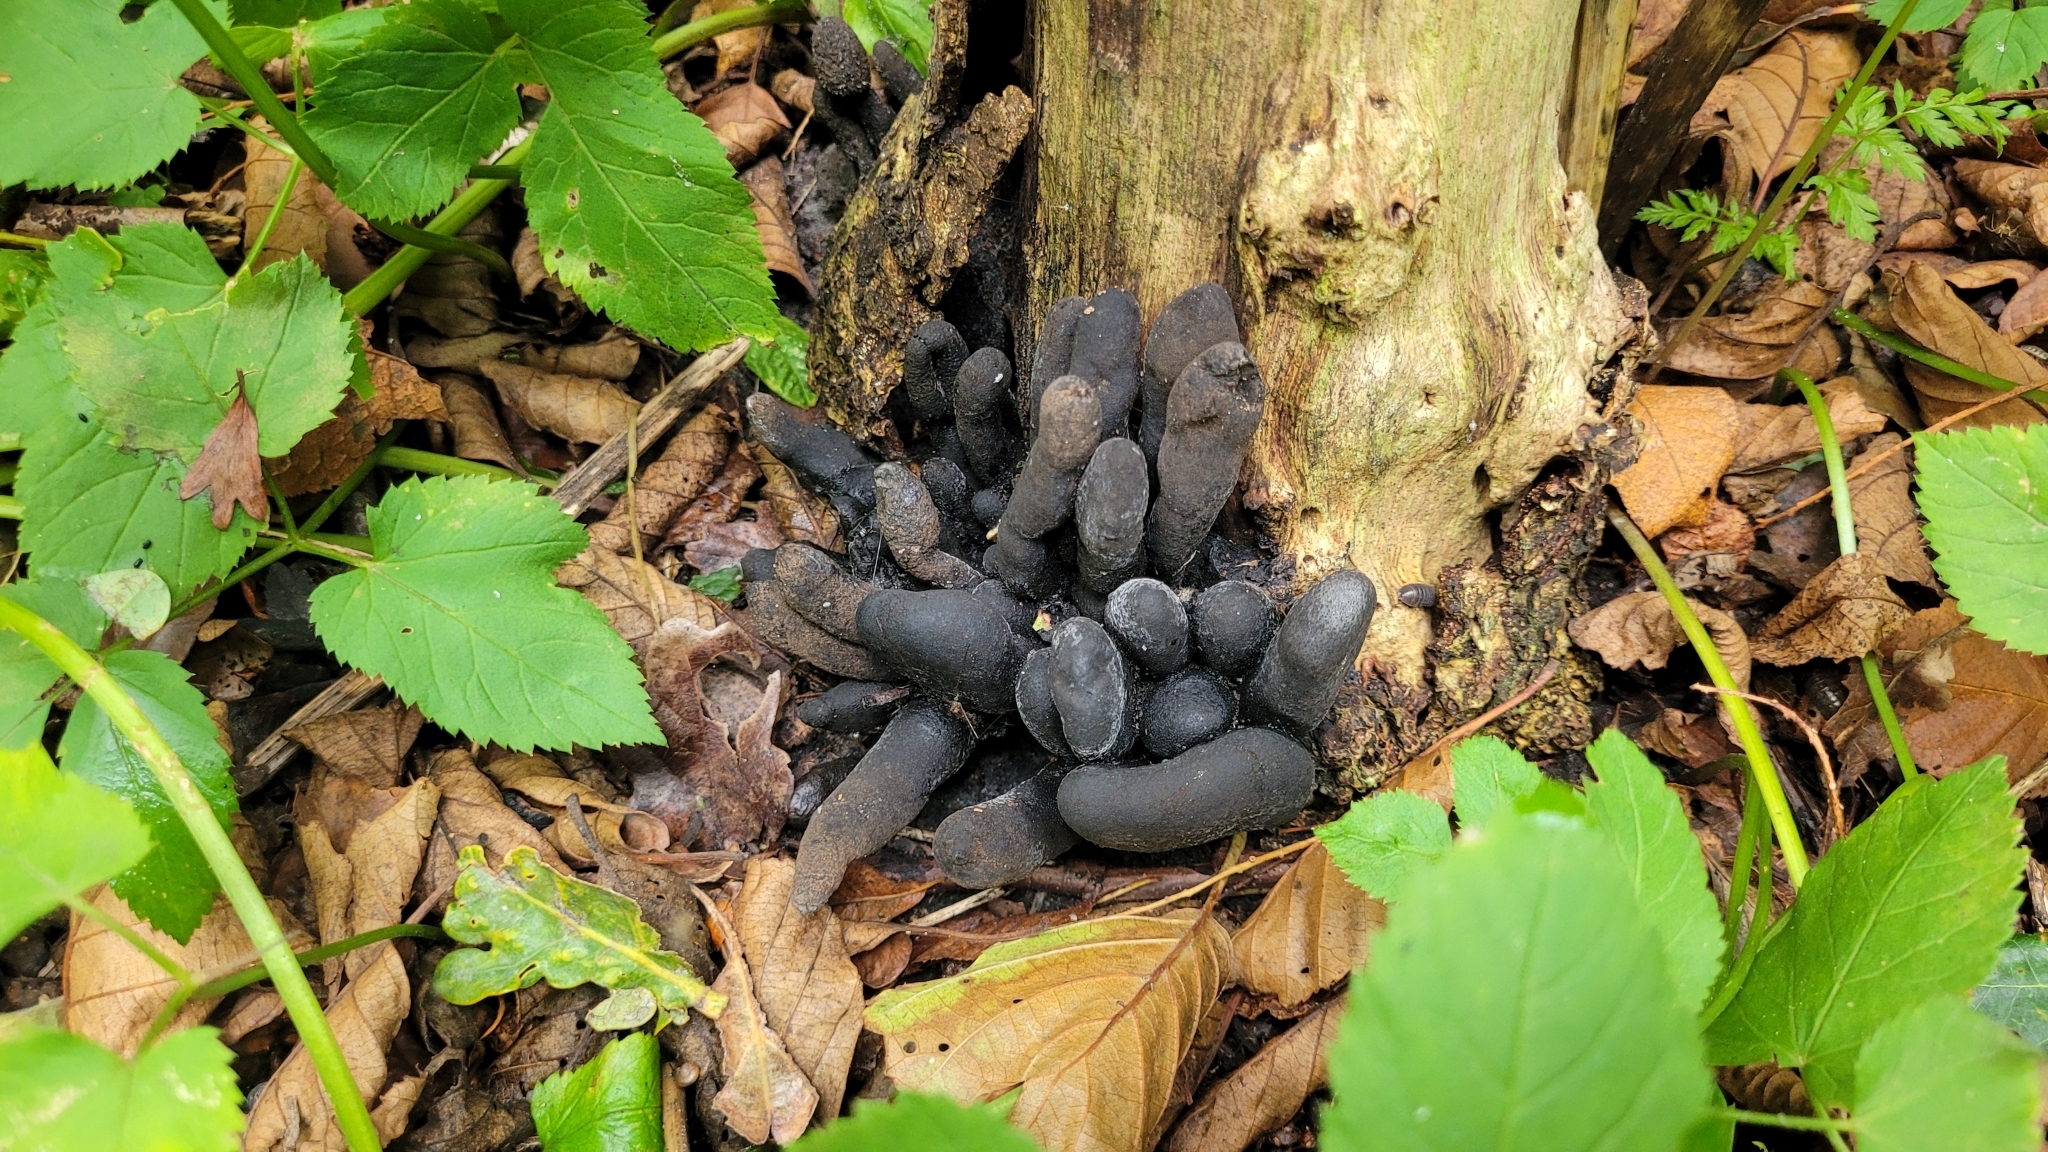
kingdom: Fungi
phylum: Ascomycota
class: Sordariomycetes
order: Xylariales
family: Xylariaceae
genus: Xylaria
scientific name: Xylaria polymorpha
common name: Dead man's fingers
